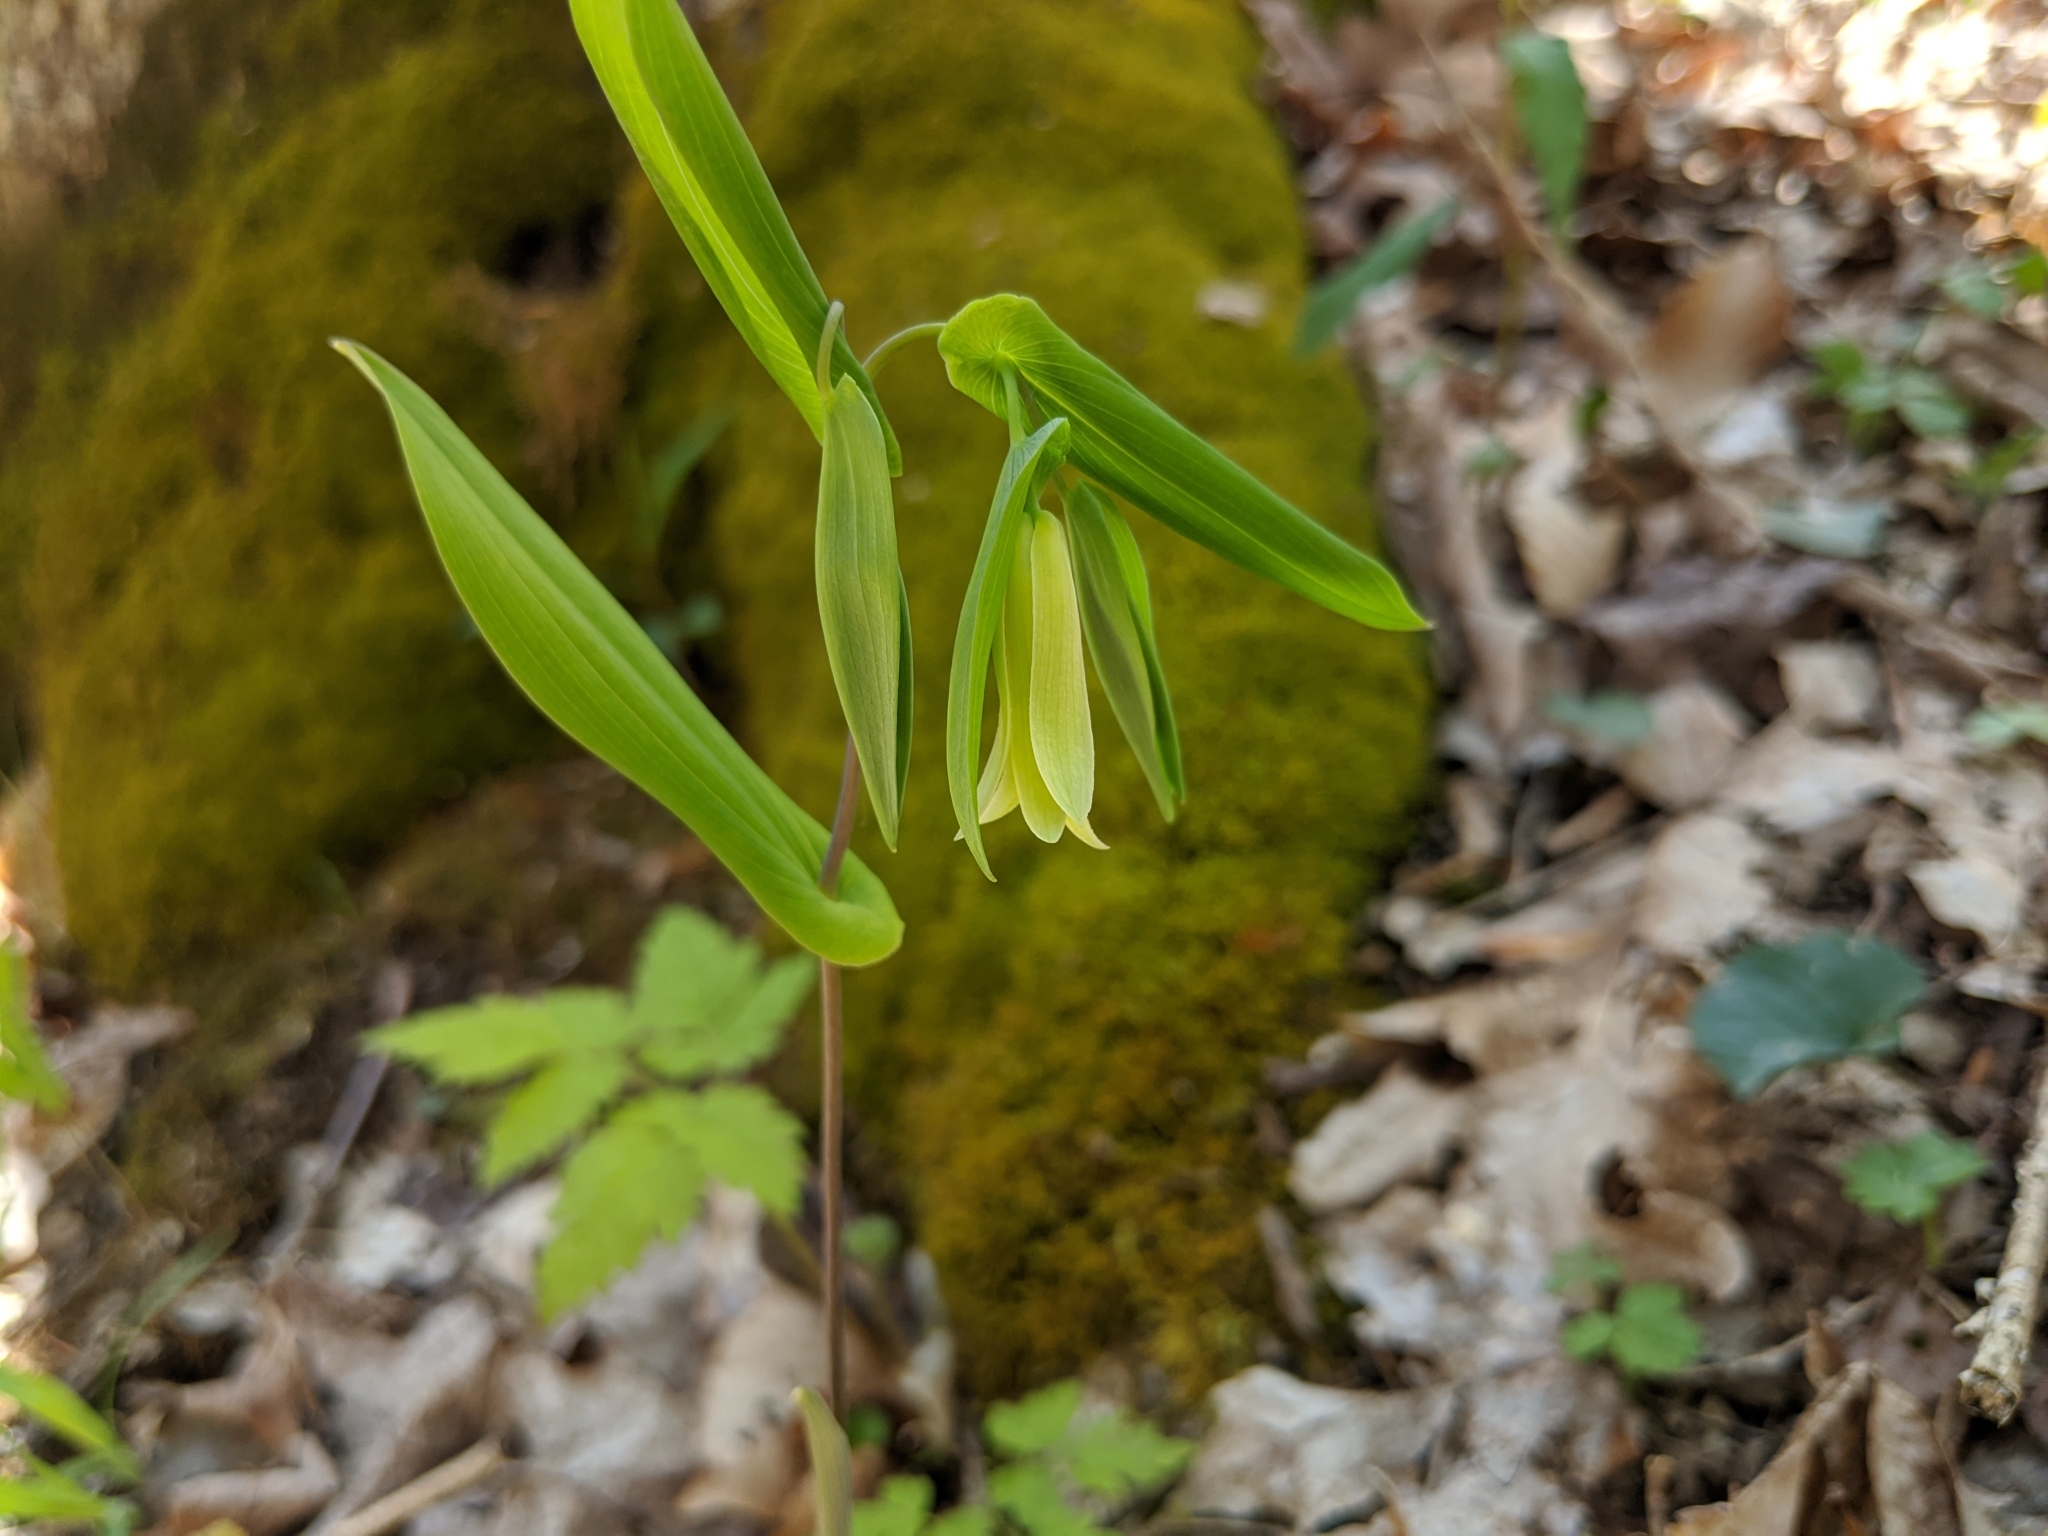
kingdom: Plantae
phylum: Tracheophyta
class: Liliopsida
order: Liliales
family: Colchicaceae
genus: Uvularia
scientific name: Uvularia perfoliata
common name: Perfoliate bellwort
